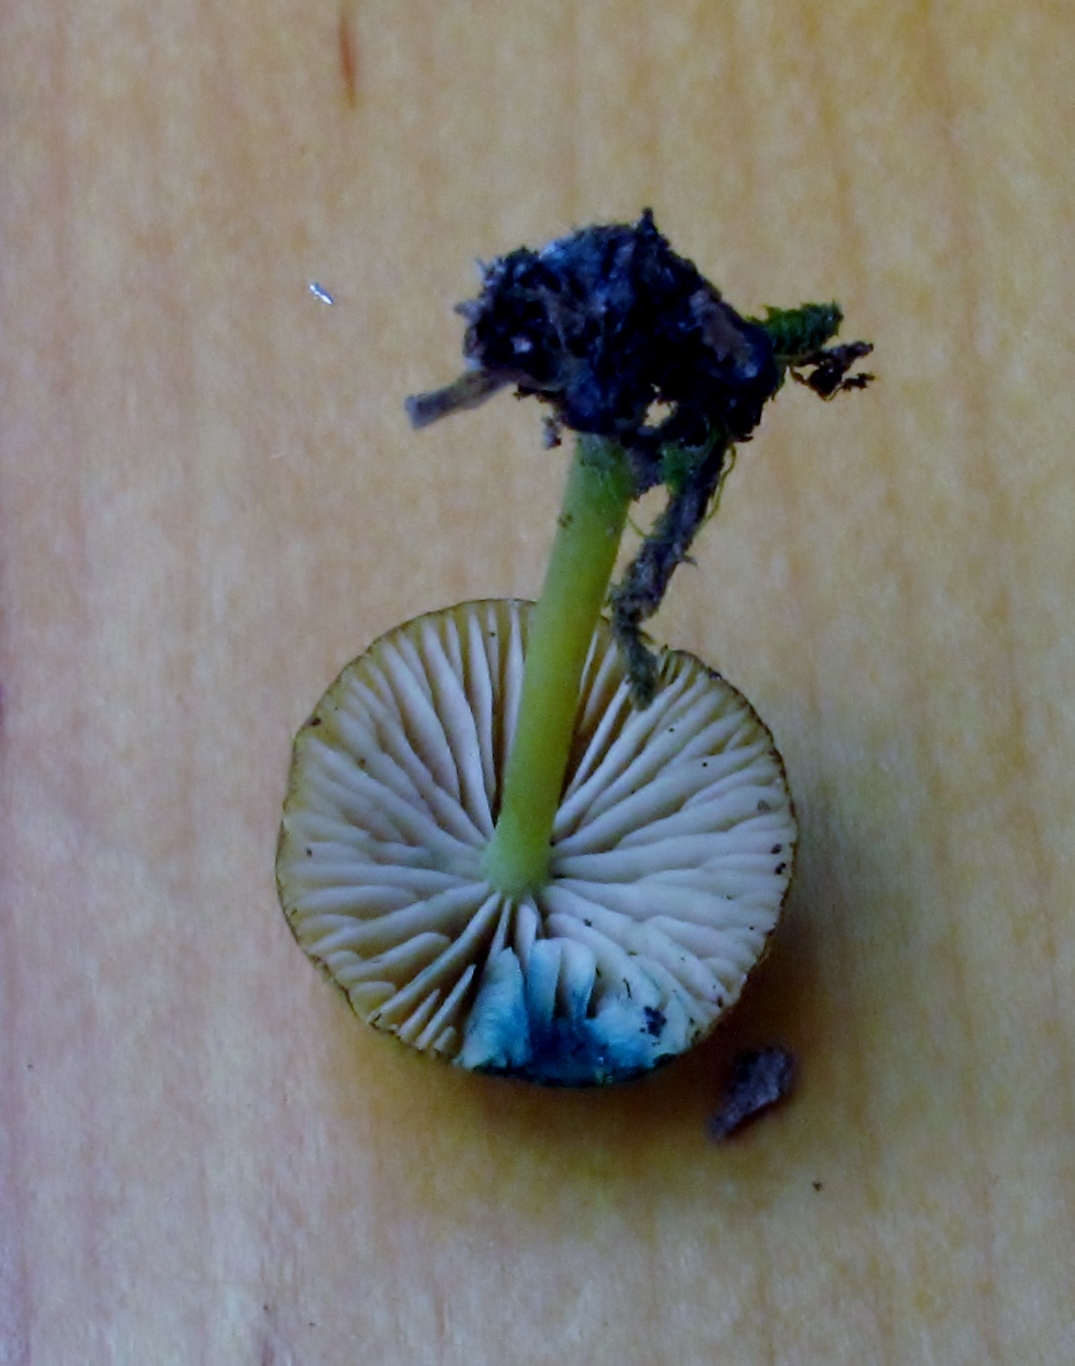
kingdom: Fungi
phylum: Basidiomycota
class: Agaricomycetes
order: Agaricales
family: Entolomataceae
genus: Entoloma
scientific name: Entoloma incanum
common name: Mousepee pinkgill
